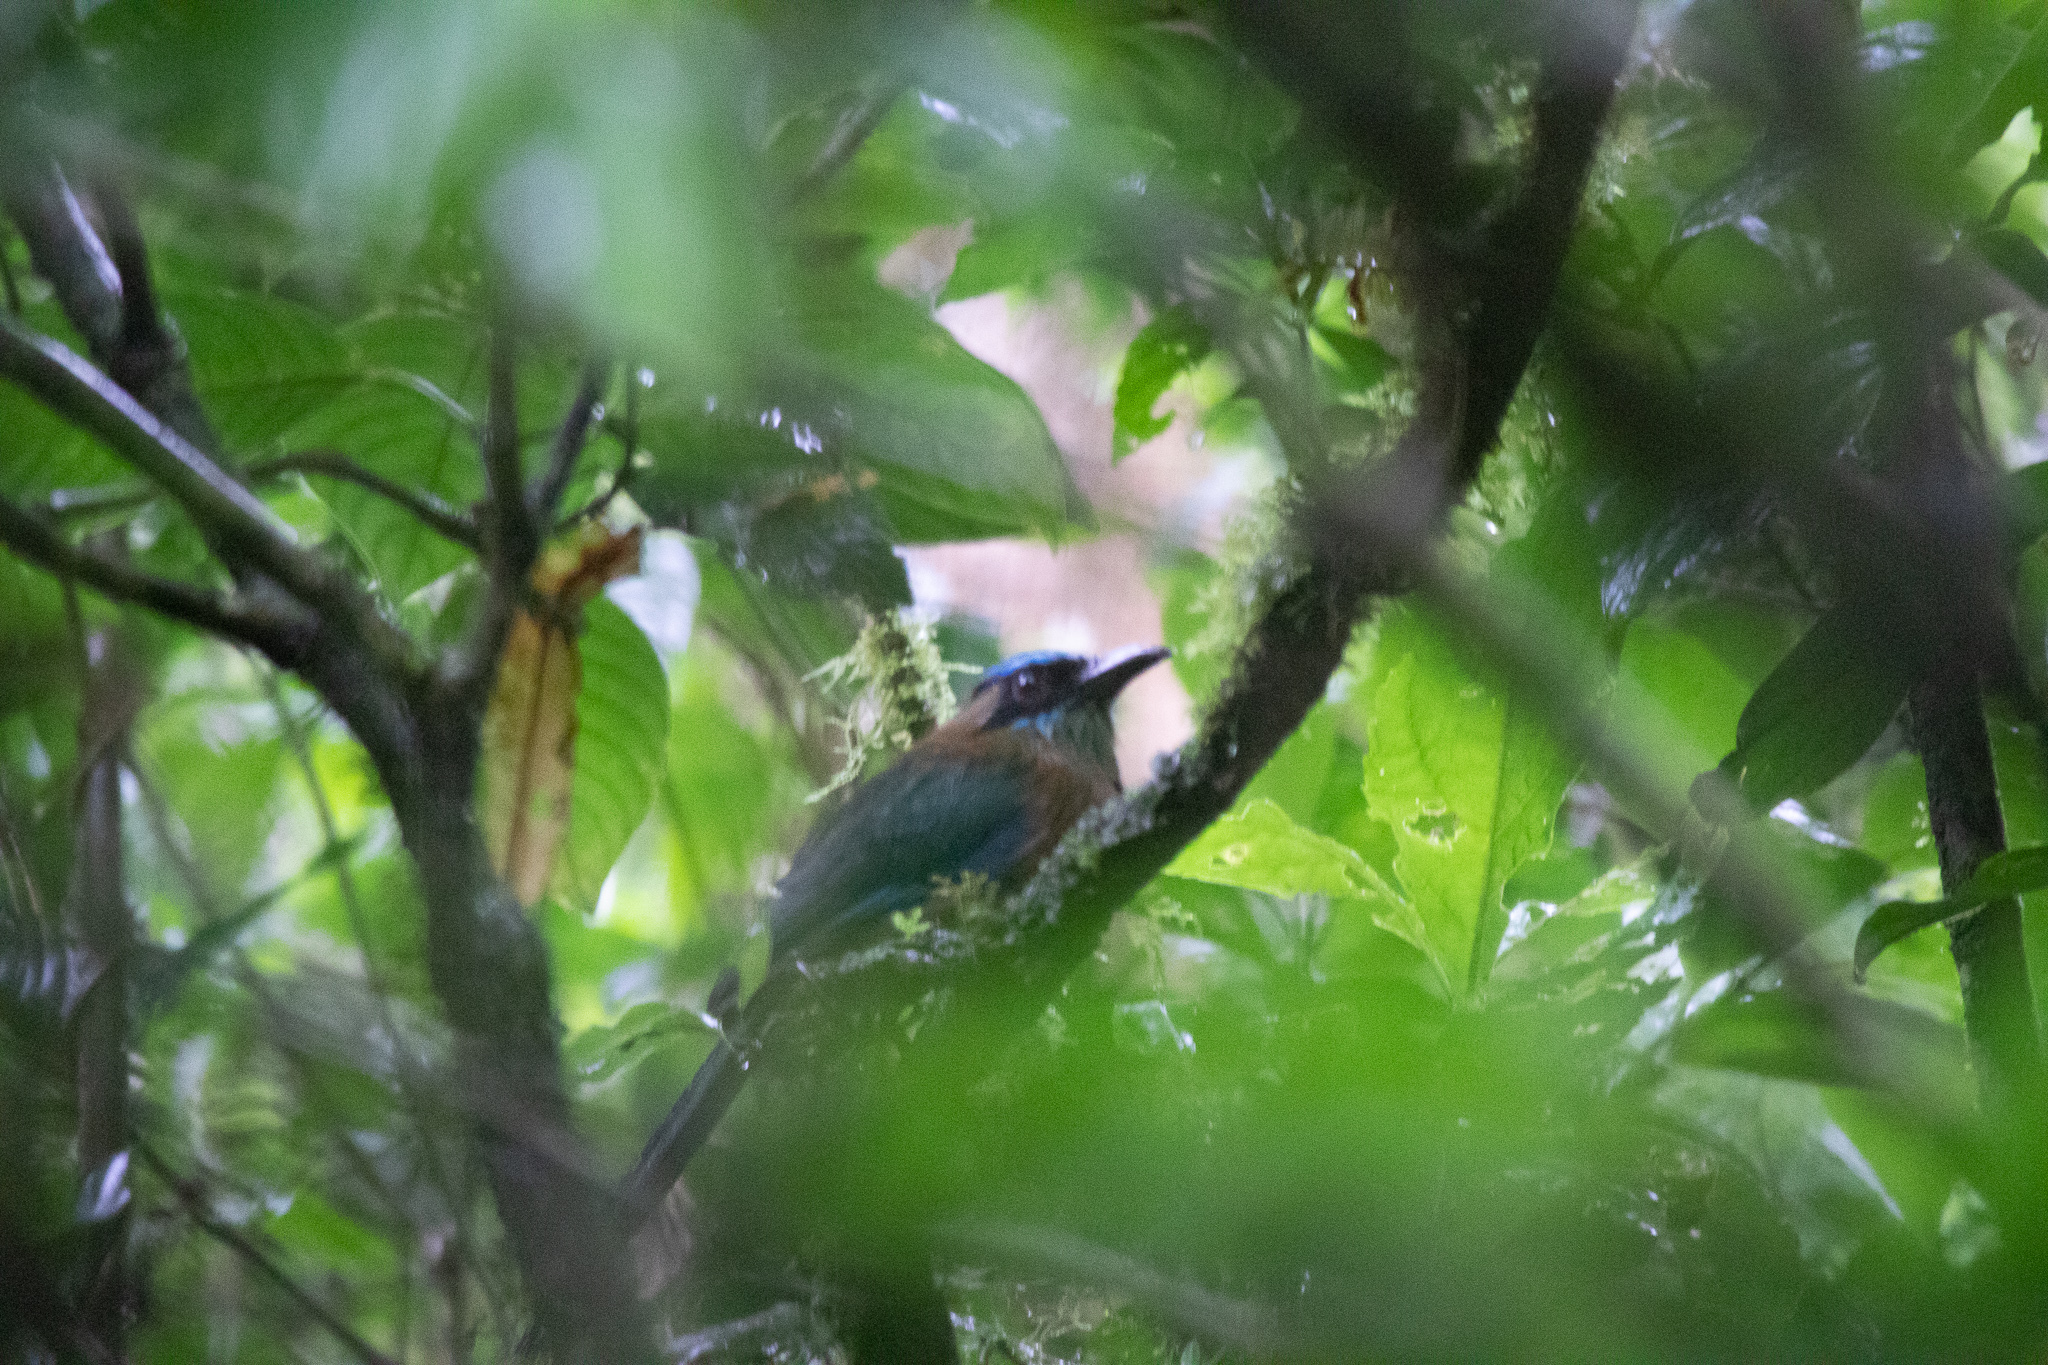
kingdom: Animalia
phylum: Chordata
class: Aves
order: Coraciiformes
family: Momotidae
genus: Momotus
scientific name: Momotus lessonii
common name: Lesson's motmot
